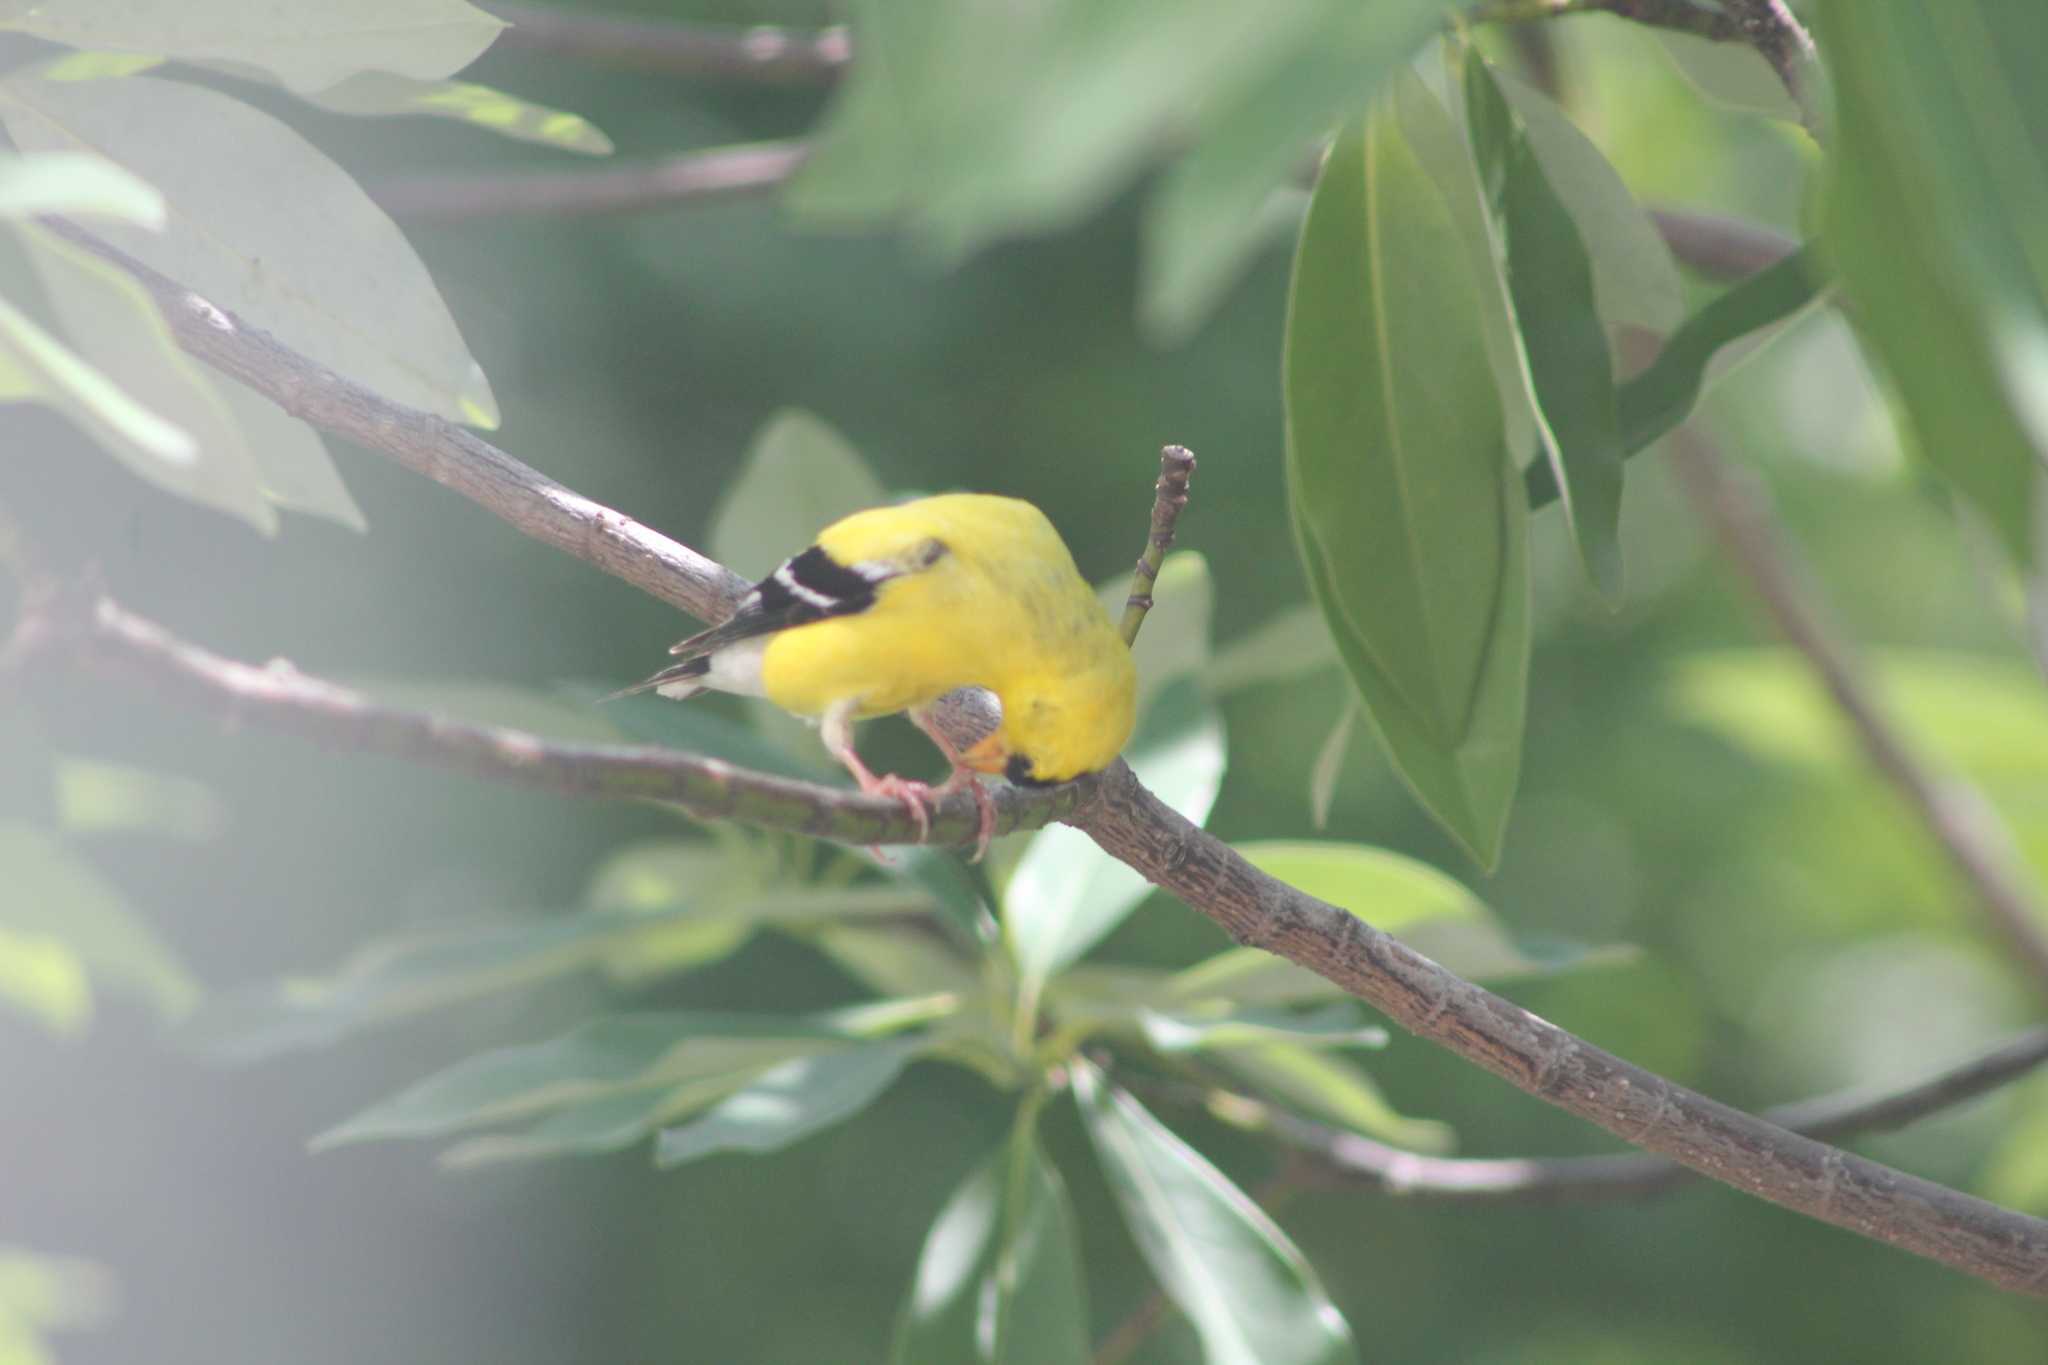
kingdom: Animalia
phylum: Chordata
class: Aves
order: Passeriformes
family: Fringillidae
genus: Spinus
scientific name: Spinus tristis
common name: American goldfinch
